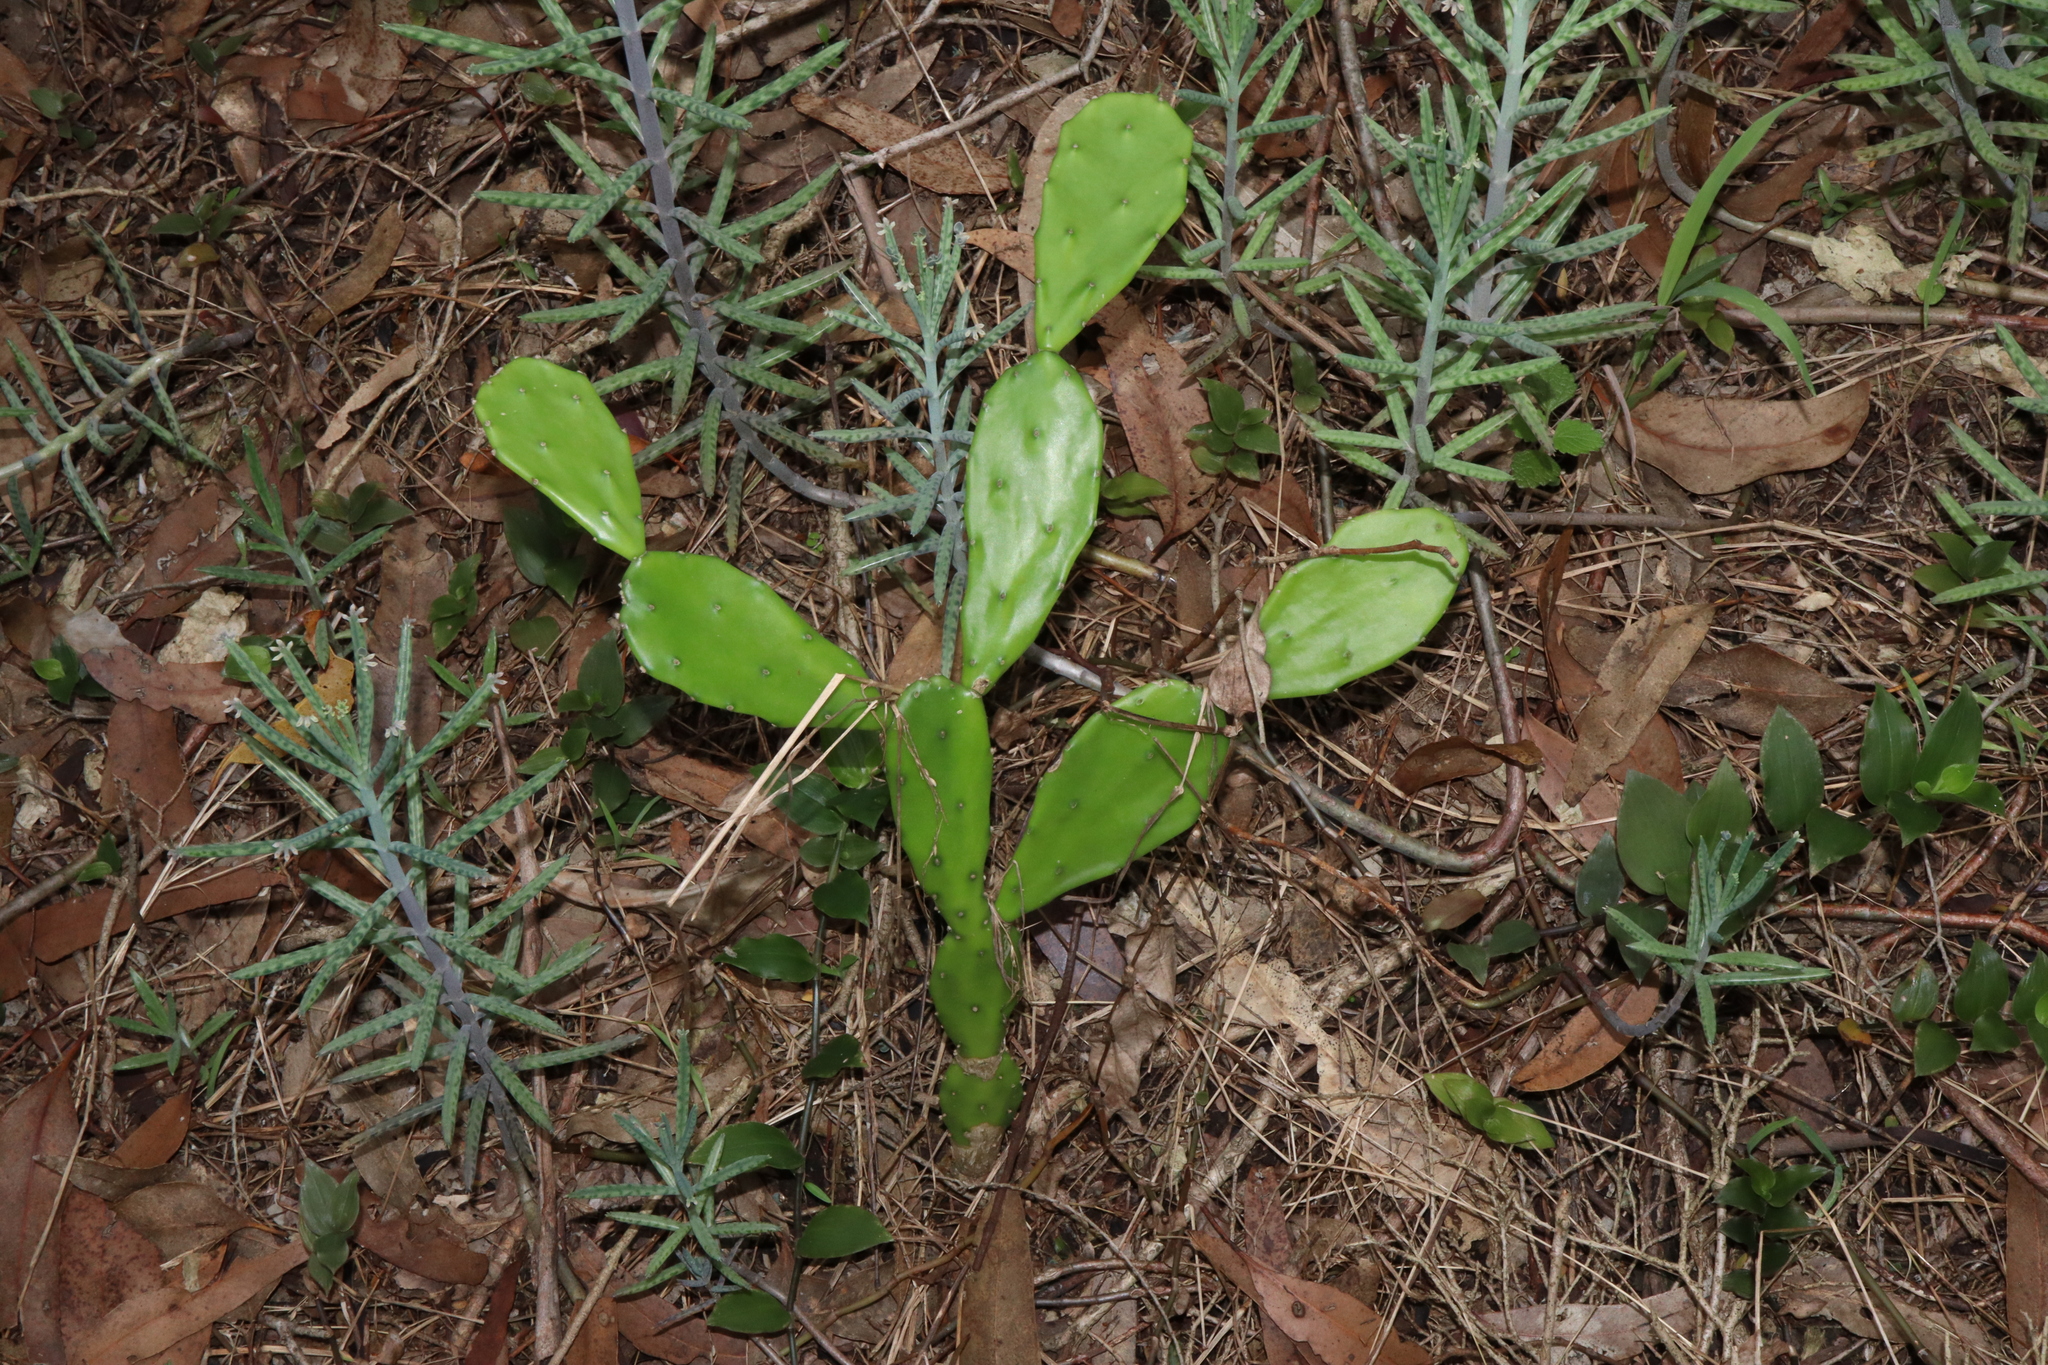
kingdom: Plantae
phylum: Tracheophyta
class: Magnoliopsida
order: Caryophyllales
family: Cactaceae
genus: Opuntia
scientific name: Opuntia monacantha
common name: Common pricklypear
